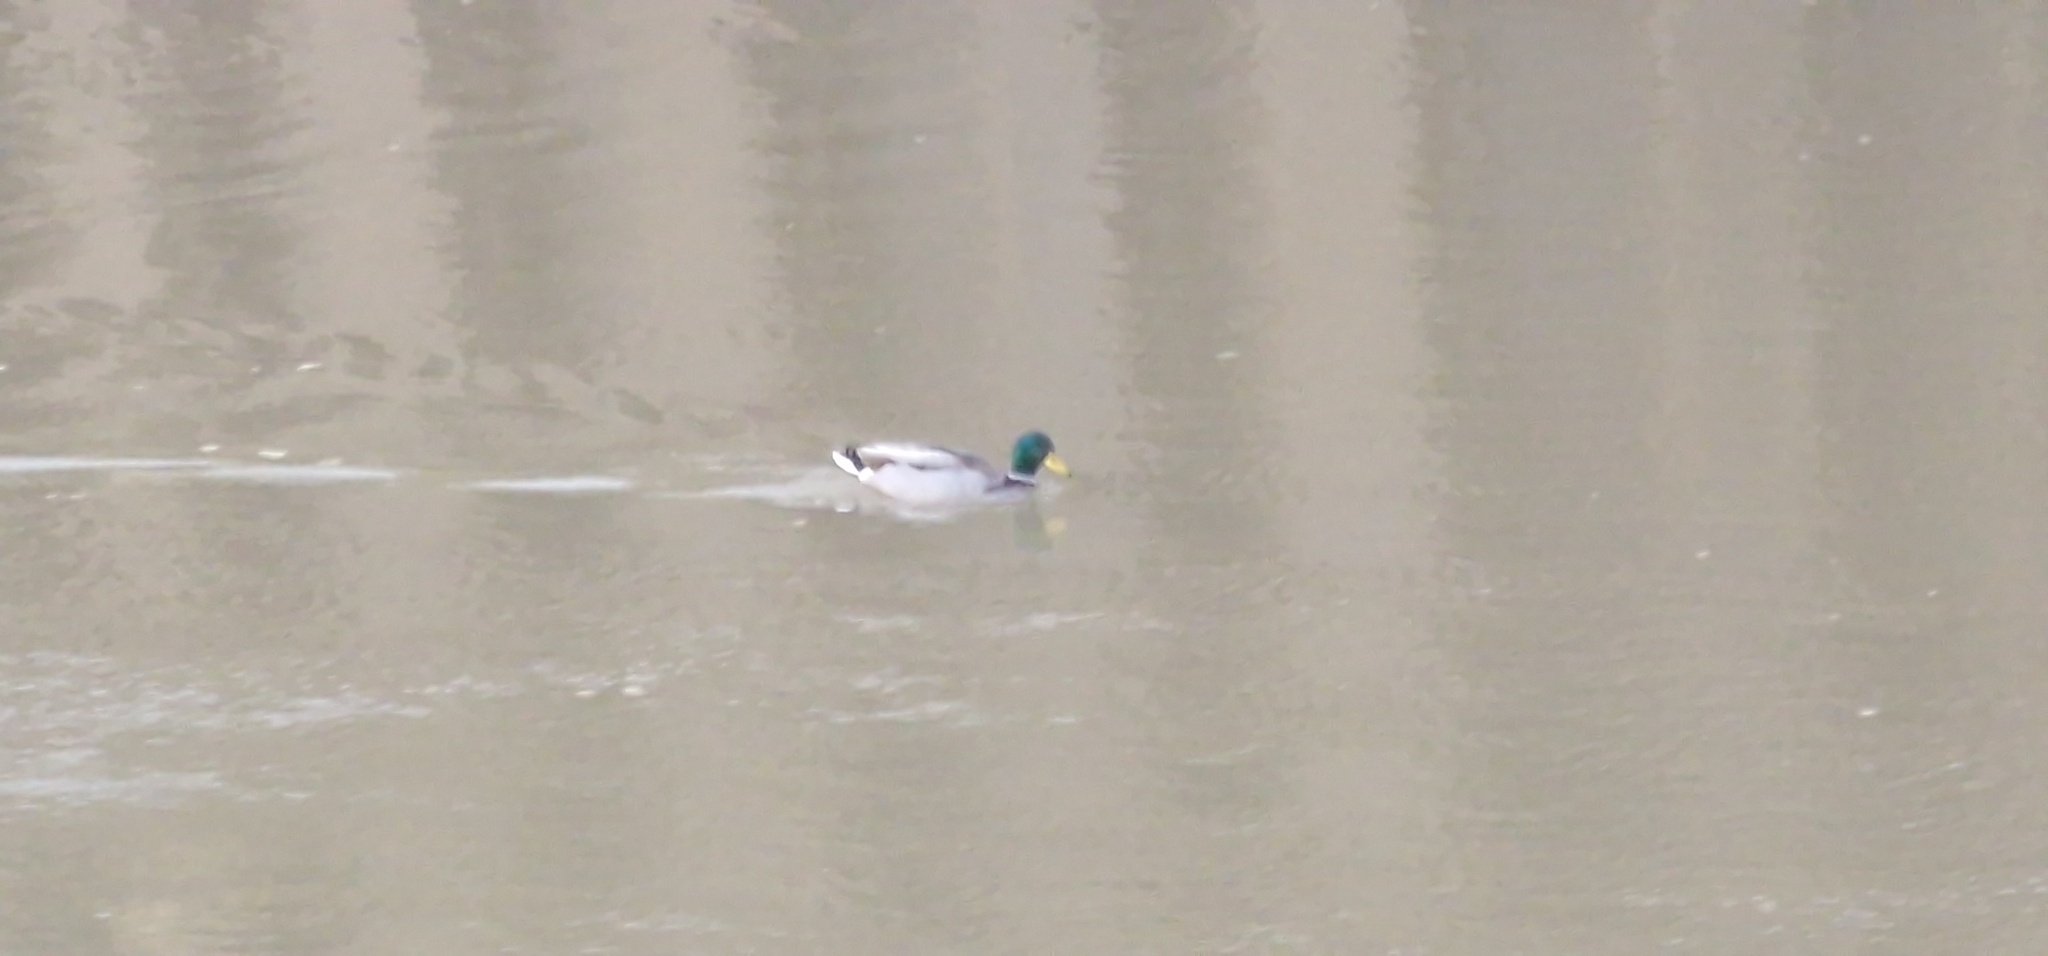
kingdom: Animalia
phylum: Chordata
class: Aves
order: Anseriformes
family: Anatidae
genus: Anas
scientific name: Anas platyrhynchos
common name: Mallard
